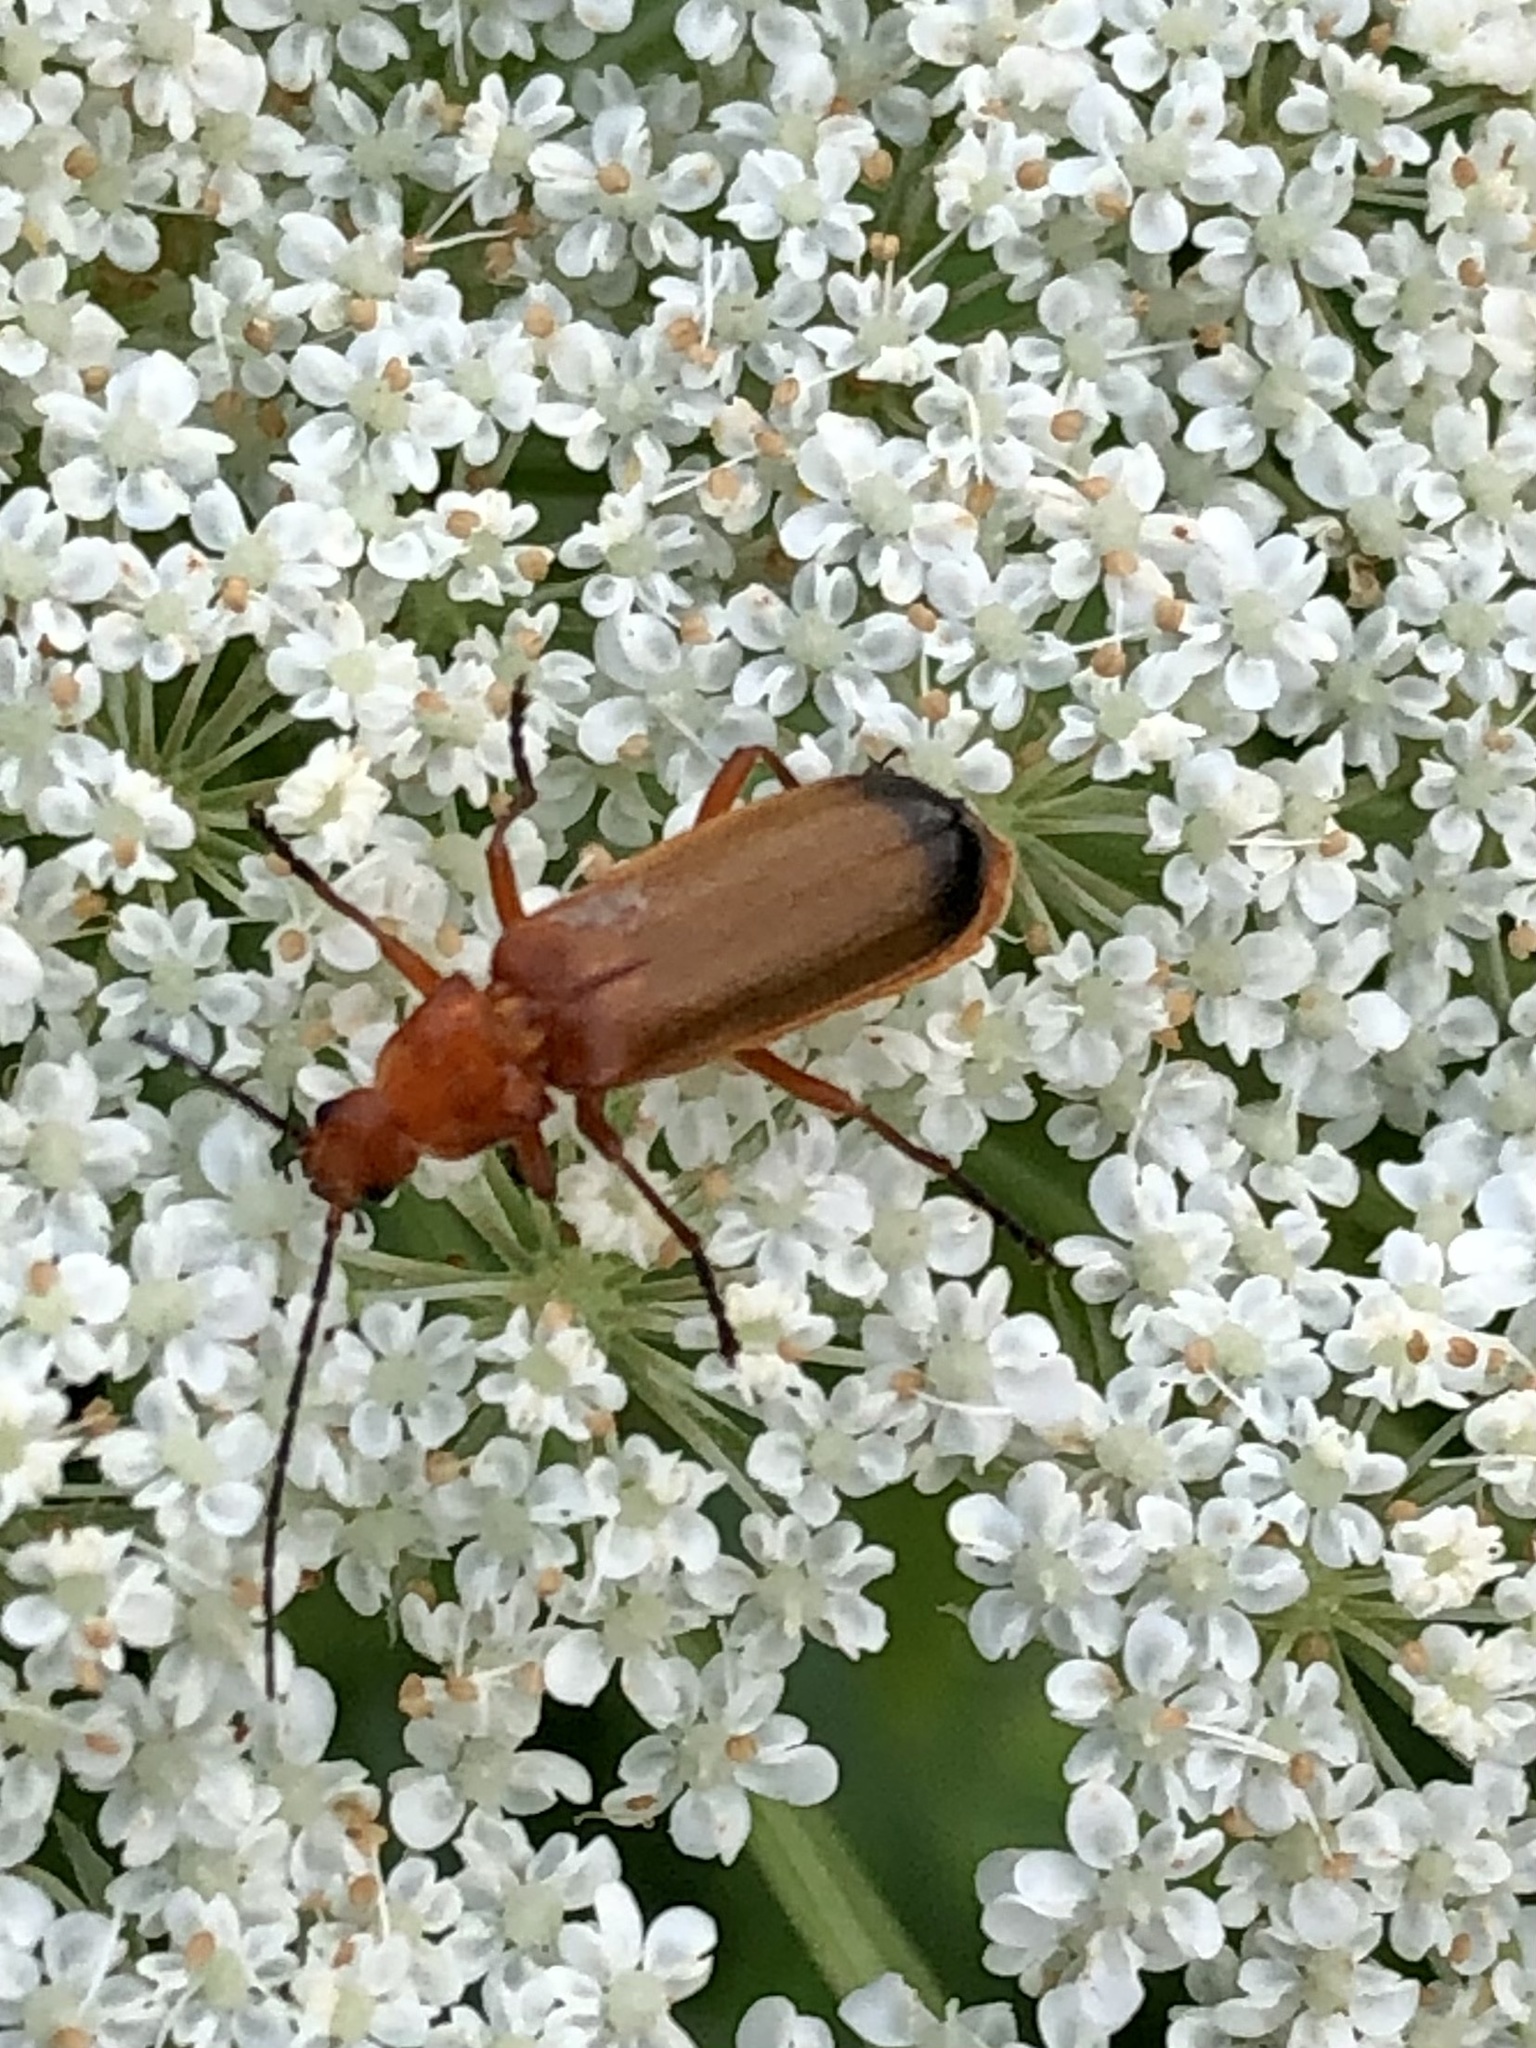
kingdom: Animalia
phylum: Arthropoda
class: Insecta
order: Coleoptera
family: Cantharidae
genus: Rhagonycha
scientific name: Rhagonycha fulva
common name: Common red soldier beetle
